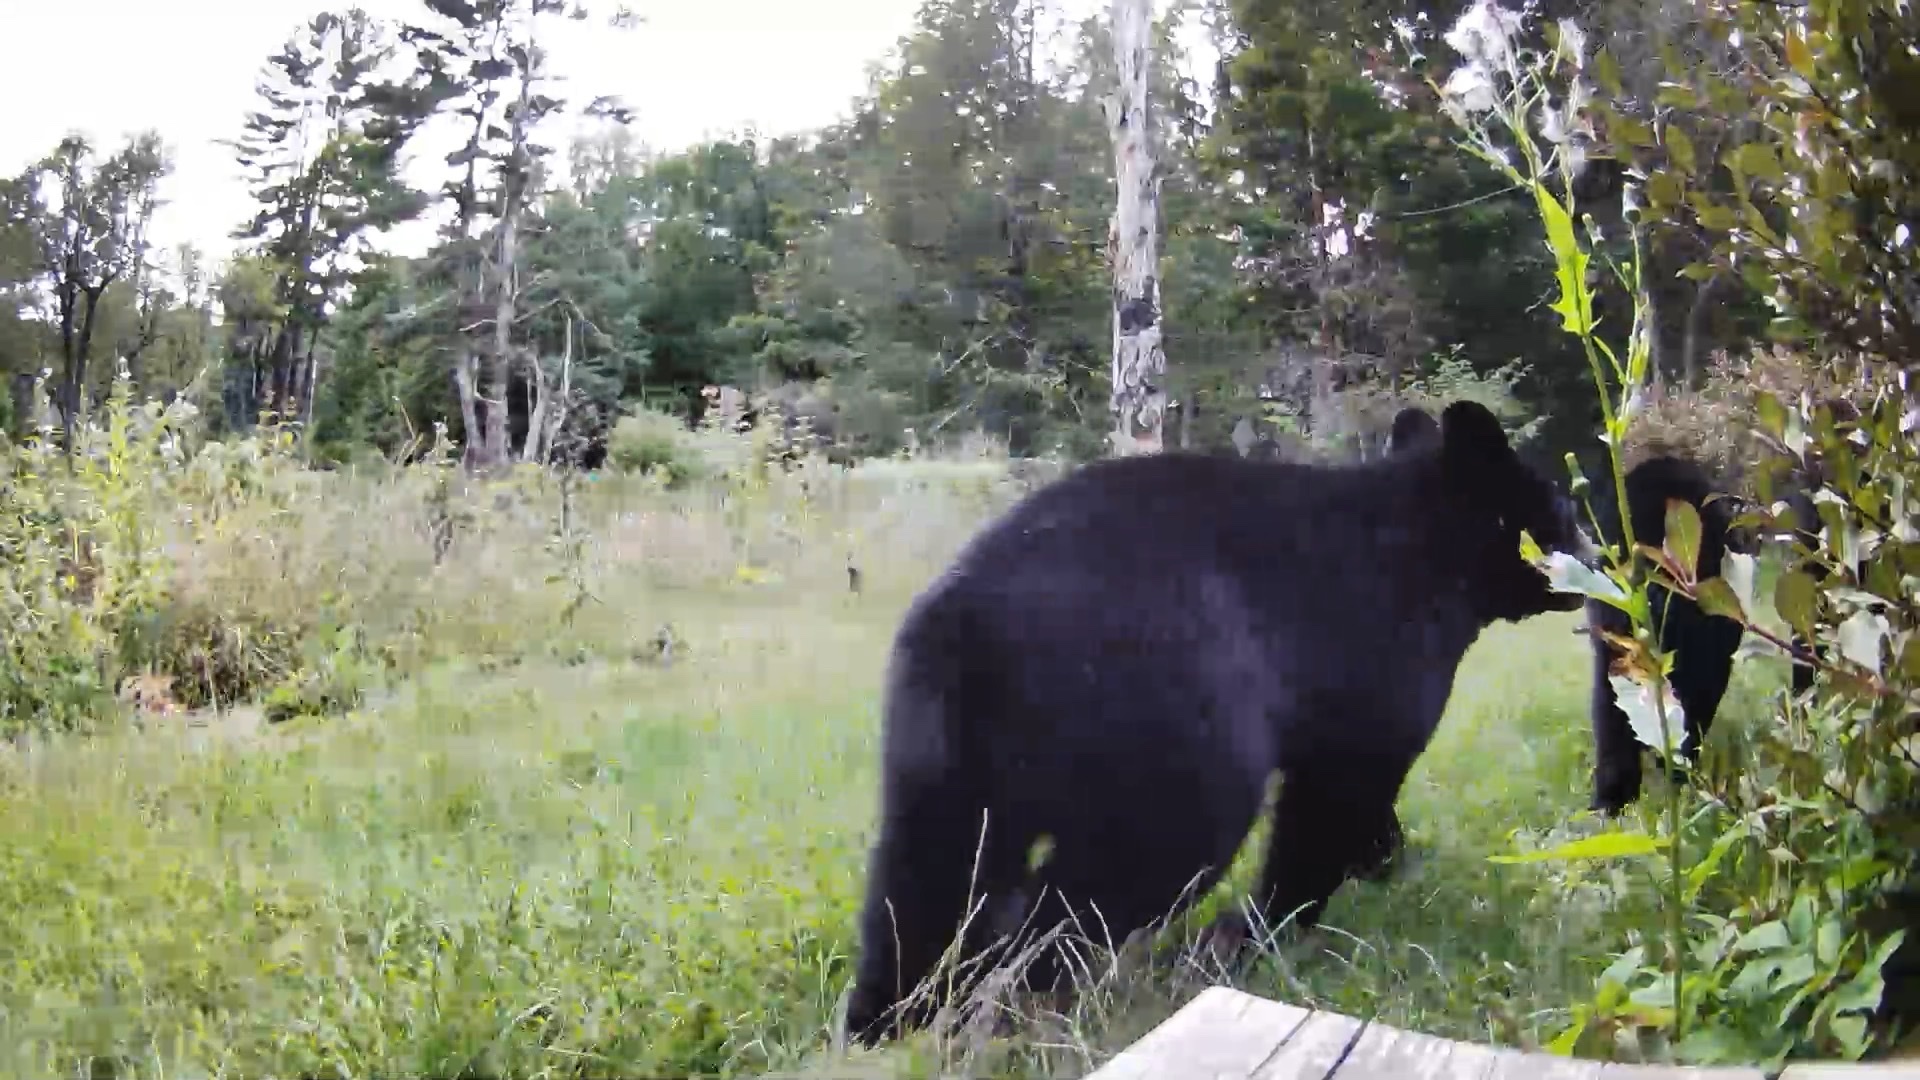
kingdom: Animalia
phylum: Chordata
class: Mammalia
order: Carnivora
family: Ursidae
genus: Ursus
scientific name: Ursus americanus
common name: American black bear
